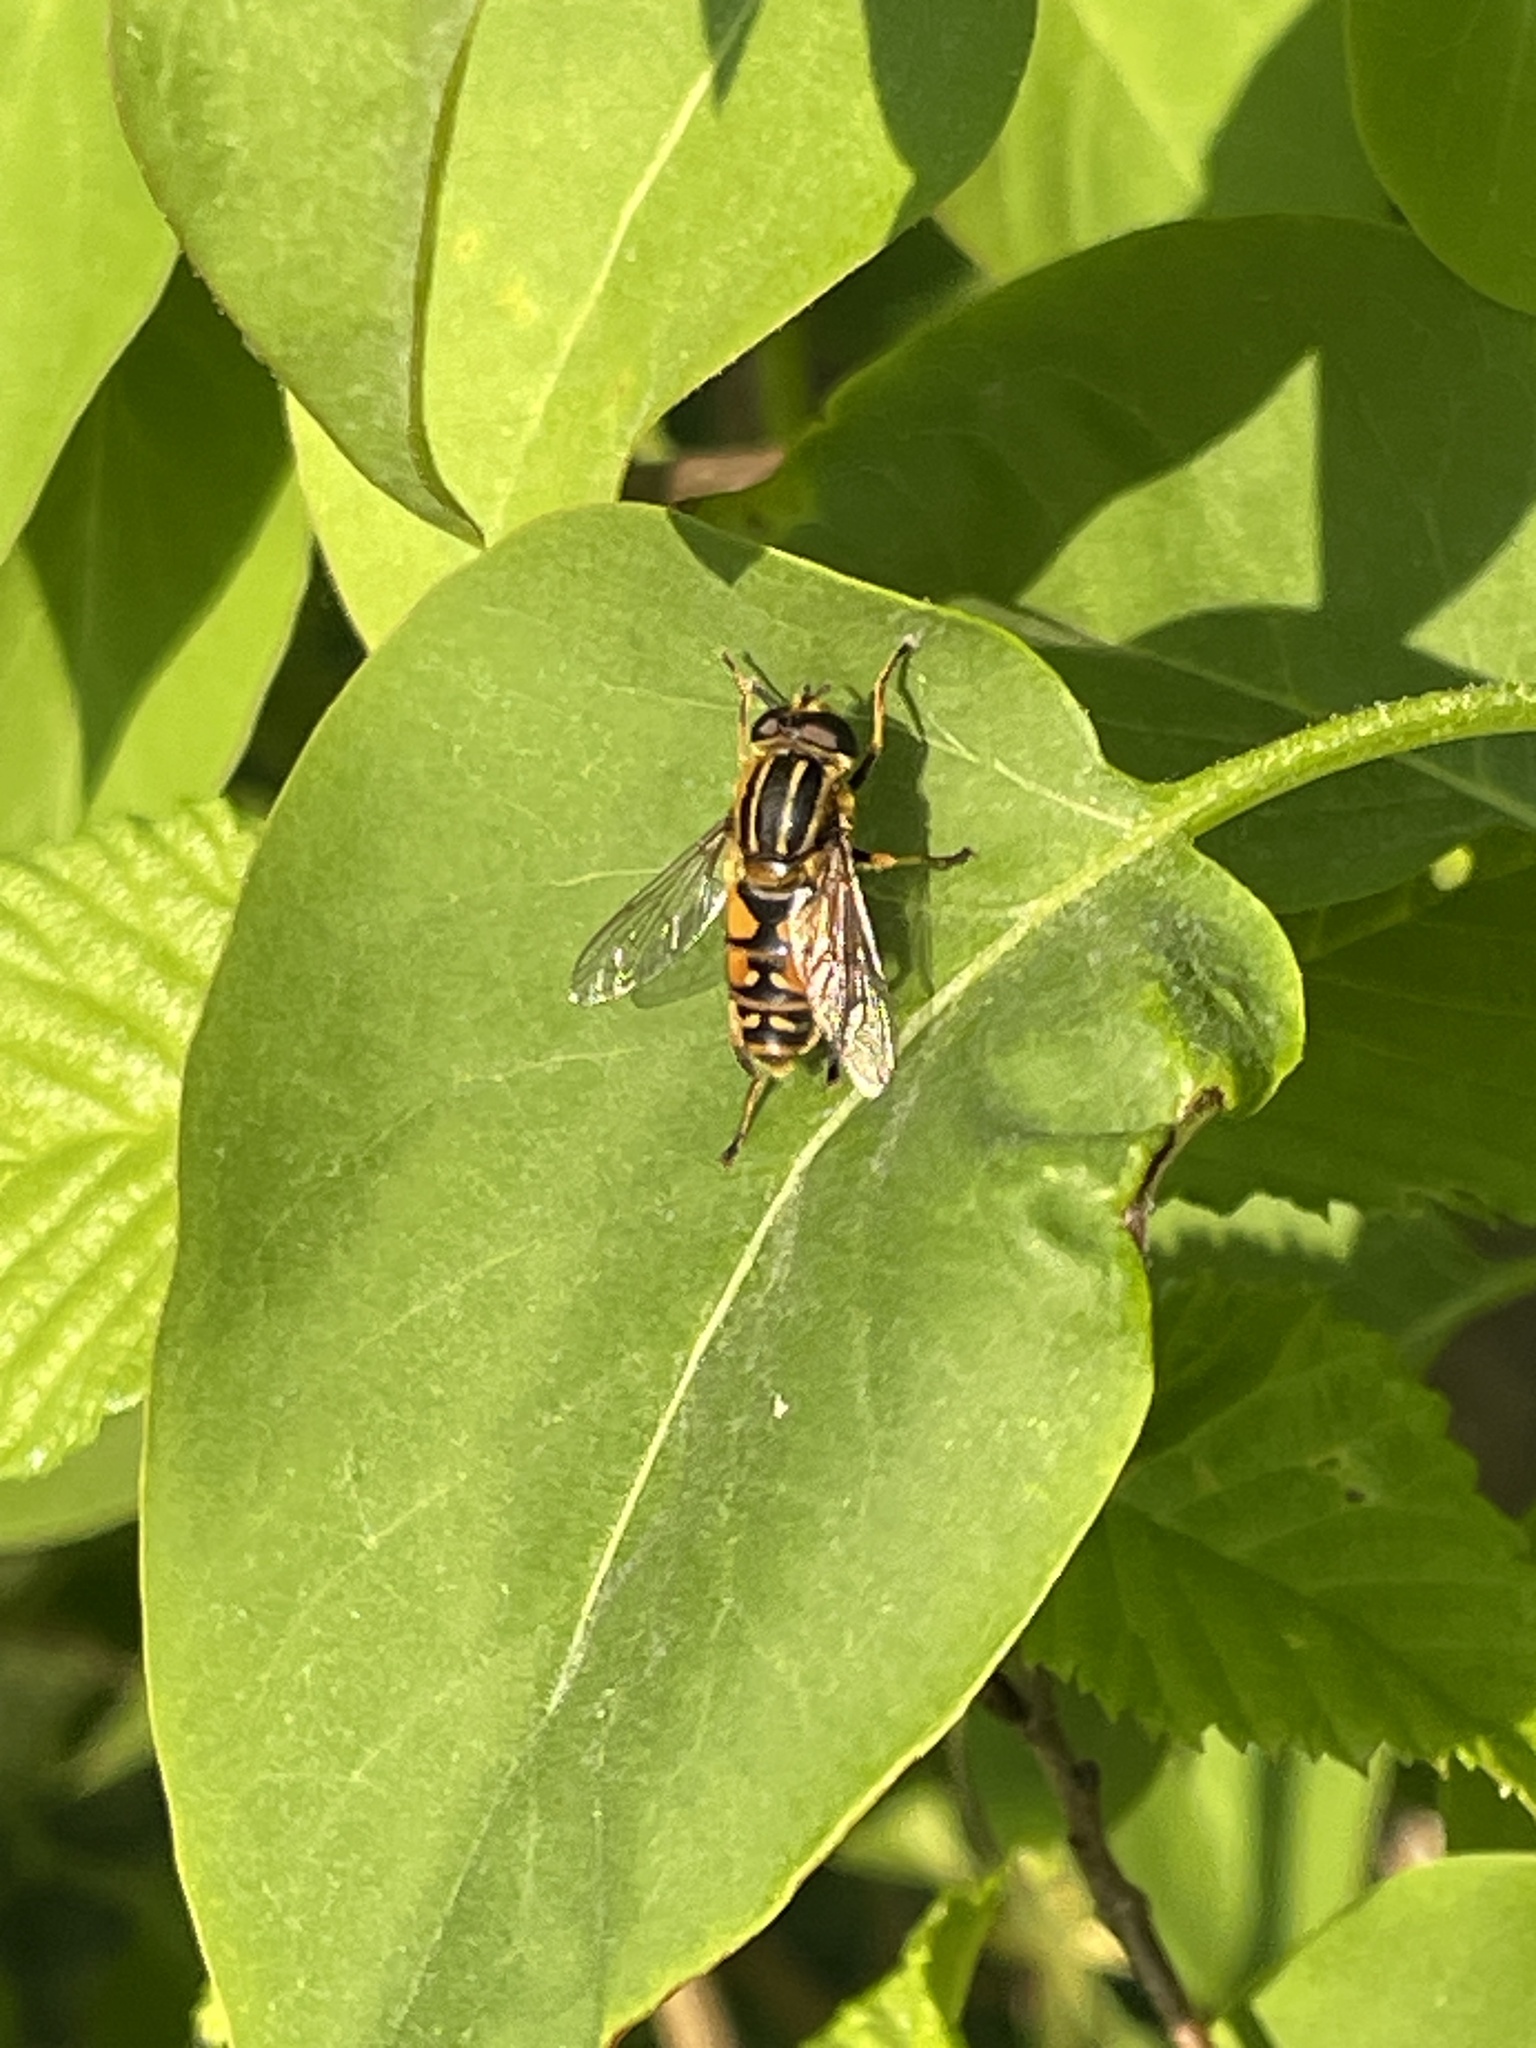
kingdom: Animalia
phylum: Arthropoda
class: Insecta
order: Diptera
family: Syrphidae
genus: Helophilus
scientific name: Helophilus pendulus
